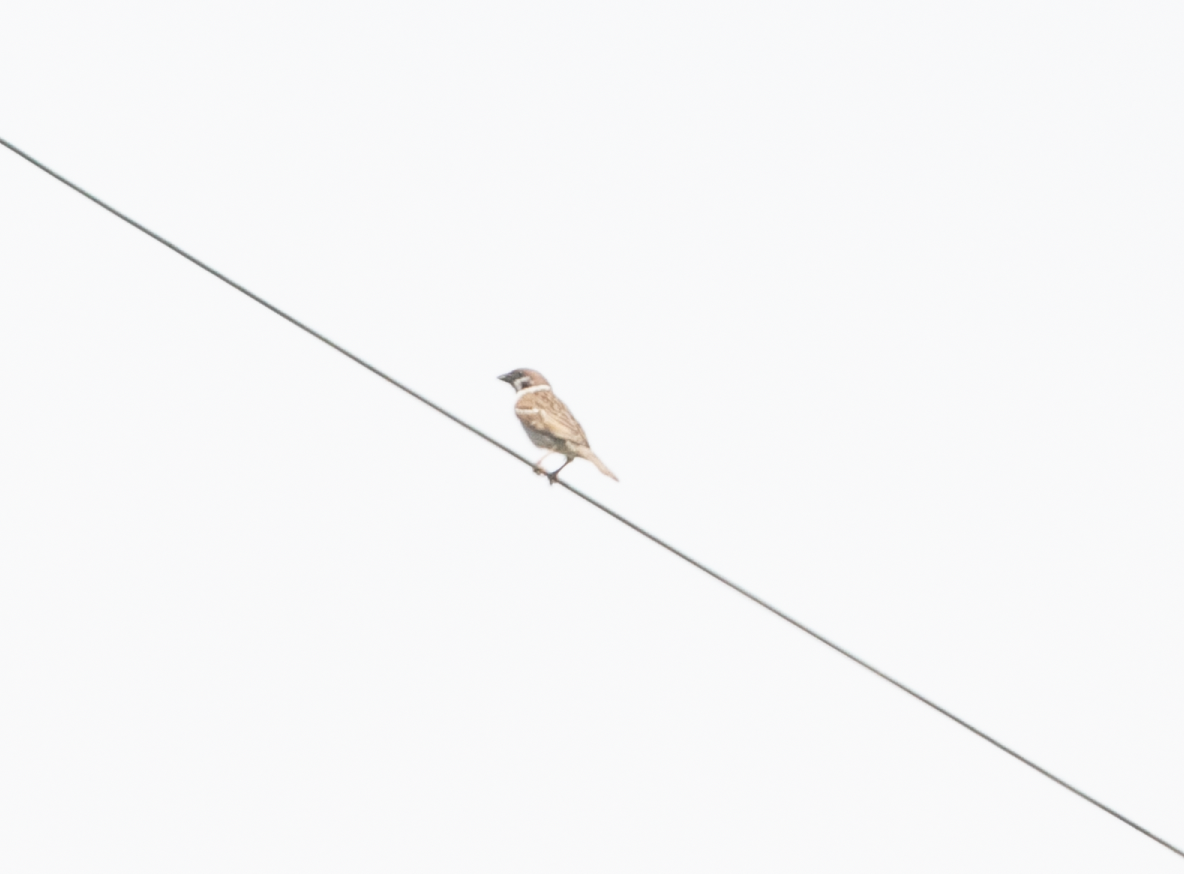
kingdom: Animalia
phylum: Chordata
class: Aves
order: Passeriformes
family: Passeridae
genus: Passer
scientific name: Passer montanus
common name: Eurasian tree sparrow
